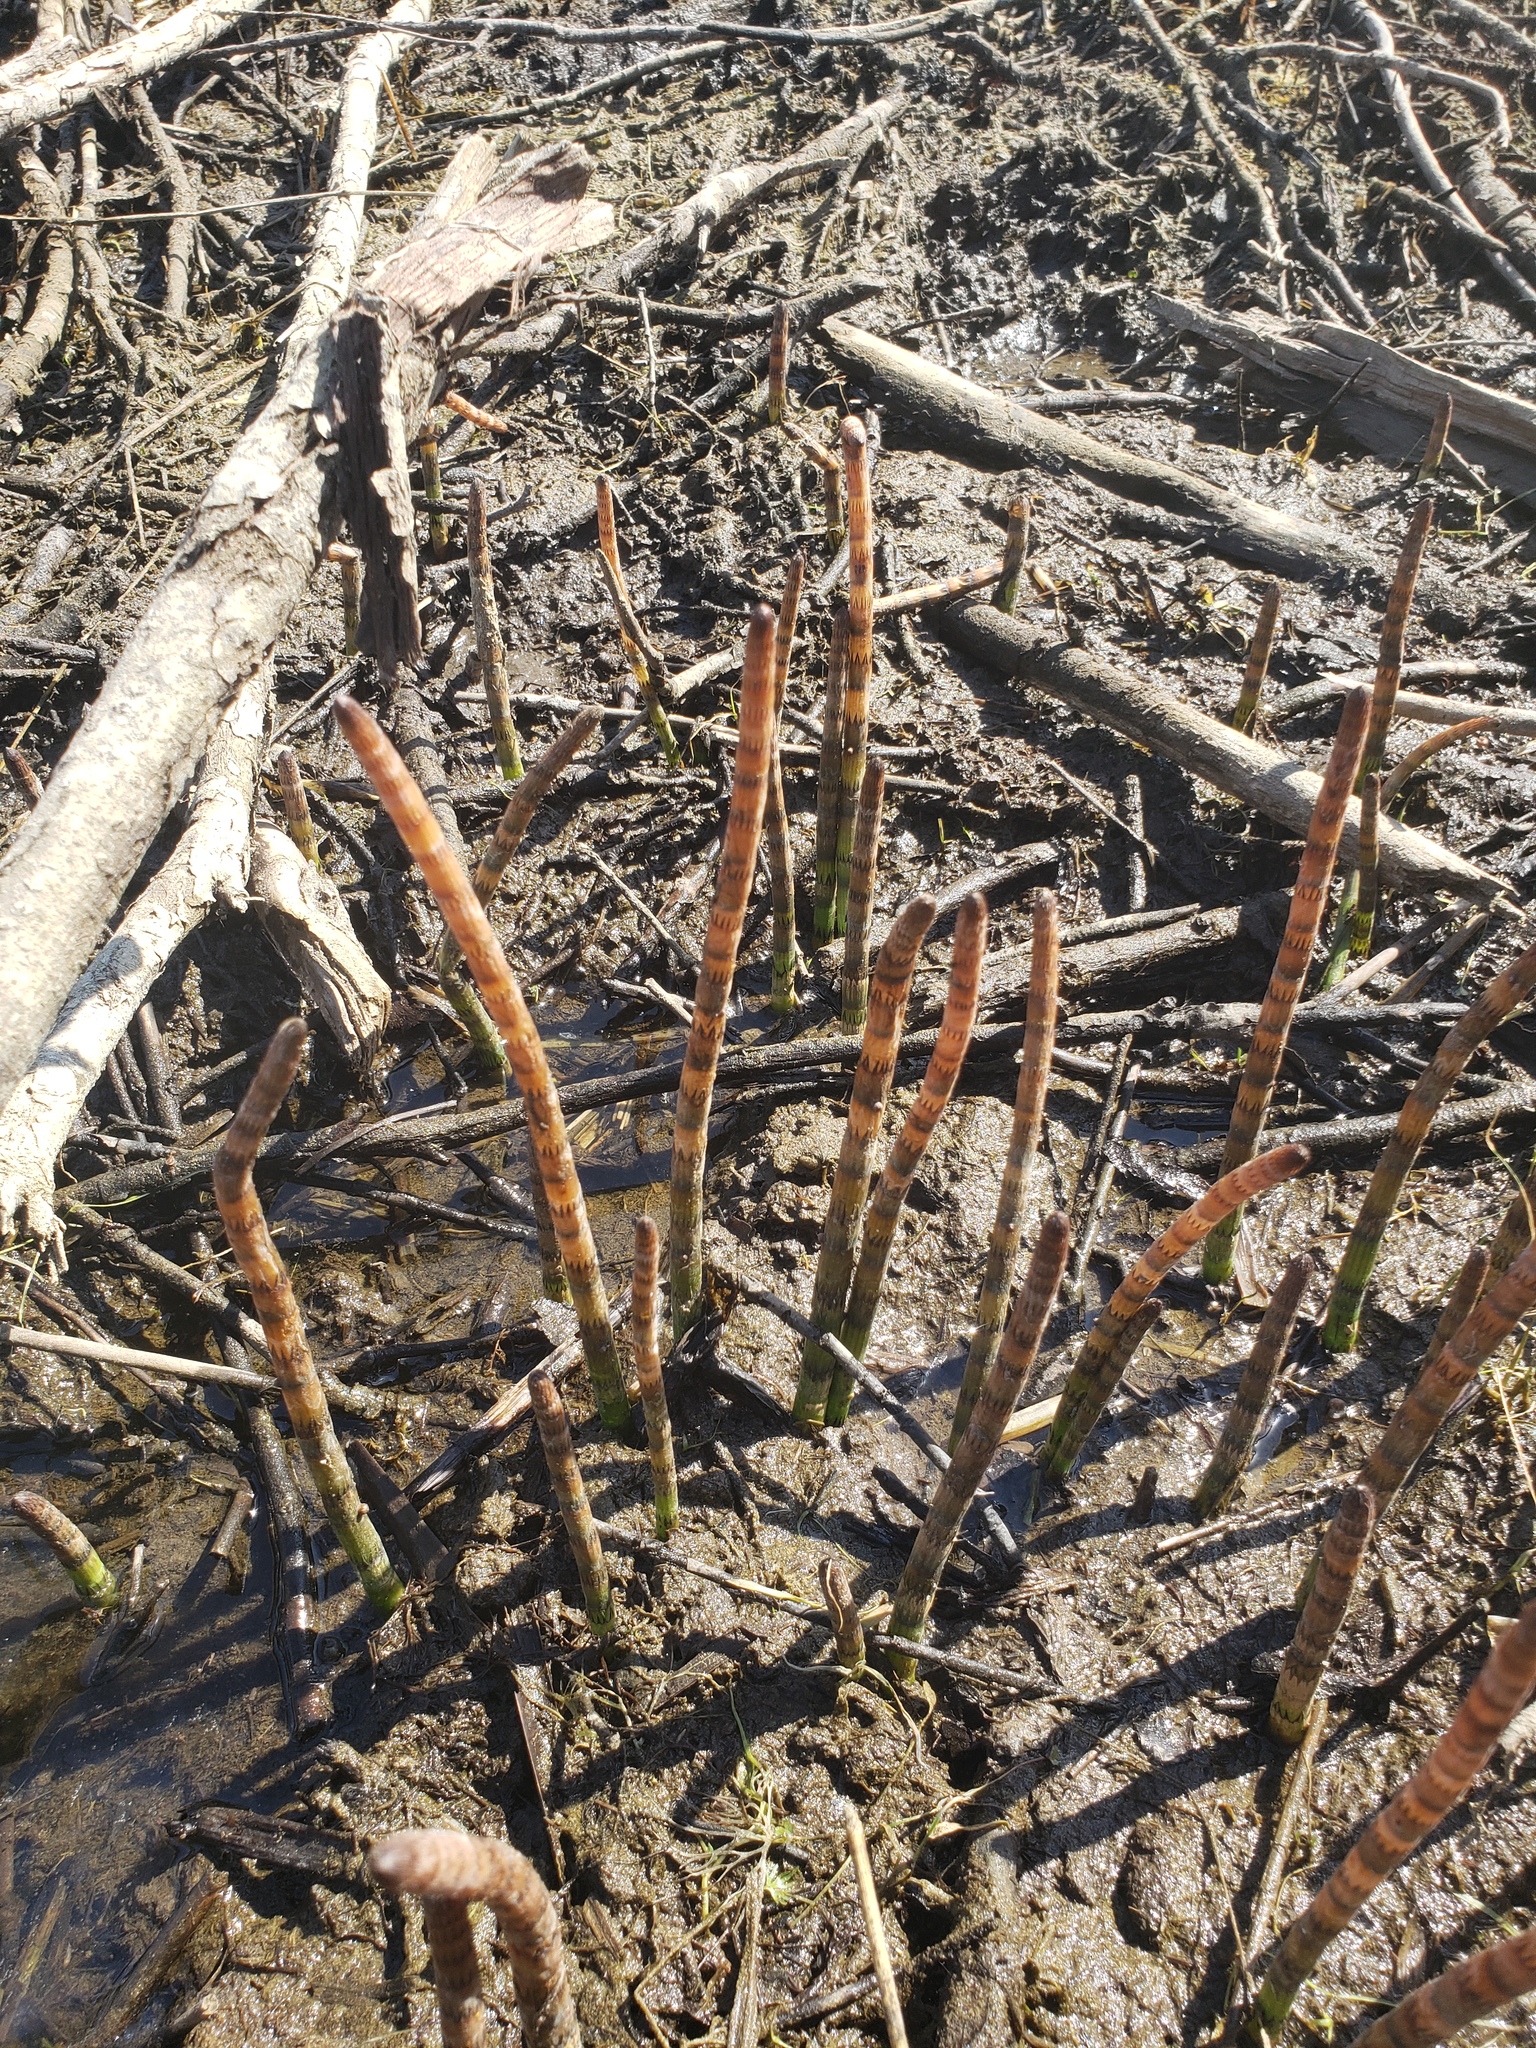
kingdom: Plantae
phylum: Tracheophyta
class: Polypodiopsida
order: Equisetales
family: Equisetaceae
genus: Equisetum
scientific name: Equisetum fluviatile
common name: Water horsetail
